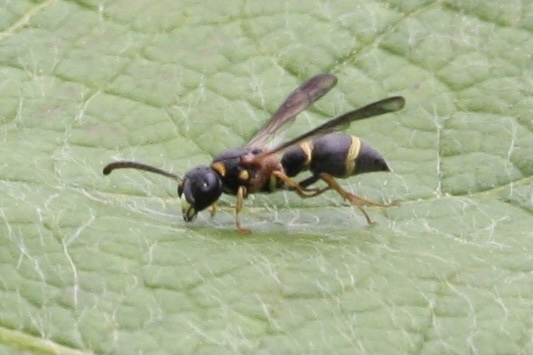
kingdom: Animalia
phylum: Arthropoda
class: Insecta
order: Hymenoptera
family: Eumenidae
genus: Parancistrocerus
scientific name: Parancistrocerus perennis
